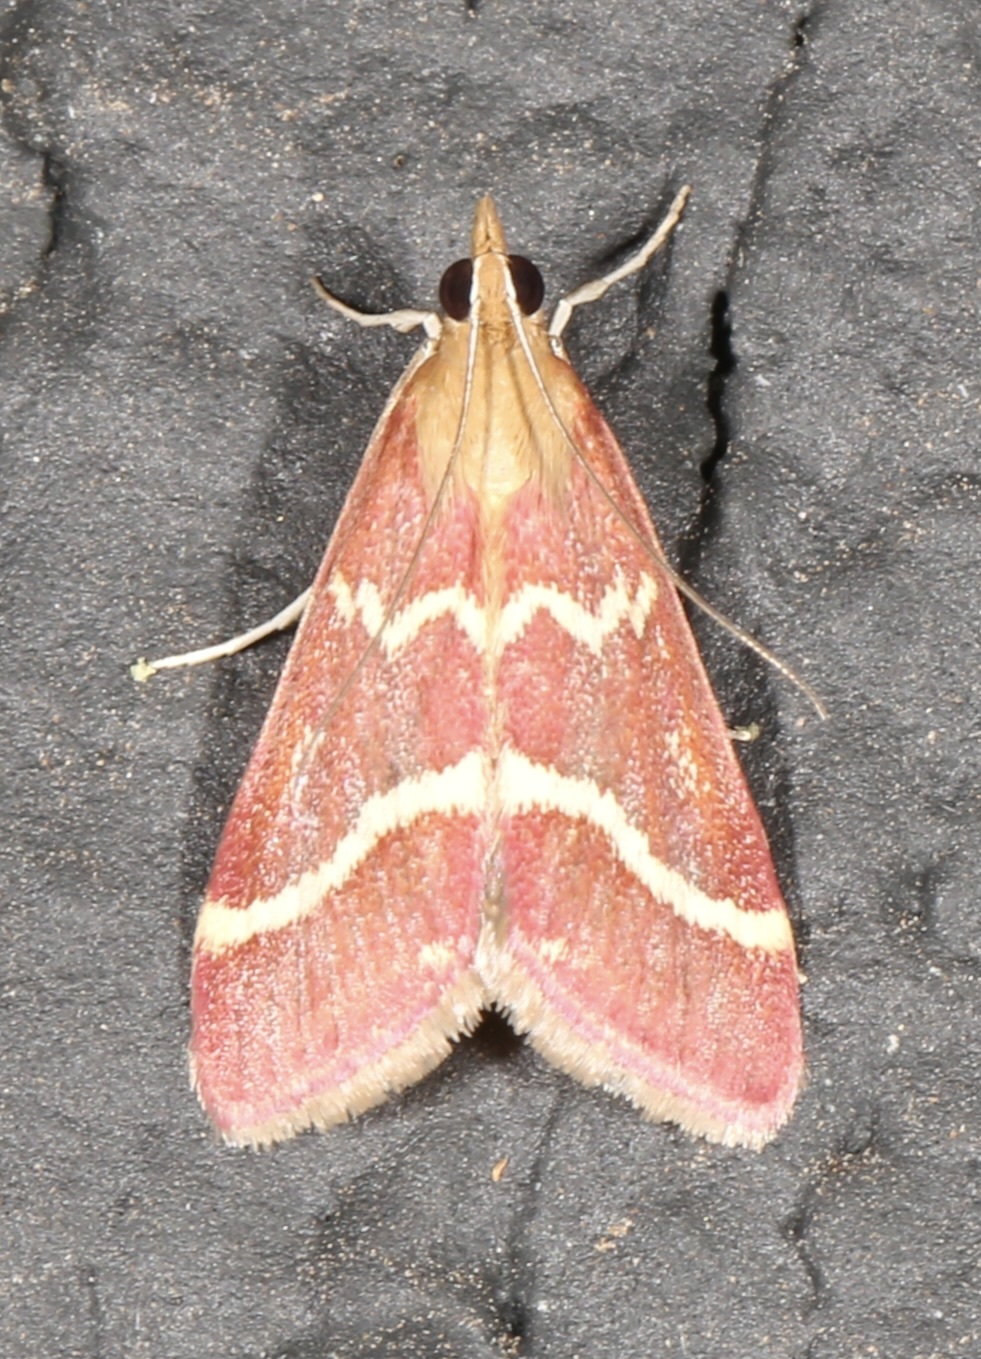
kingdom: Animalia
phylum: Arthropoda
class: Insecta
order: Lepidoptera
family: Crambidae
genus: Pyrausta
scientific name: Pyrausta volupialis
